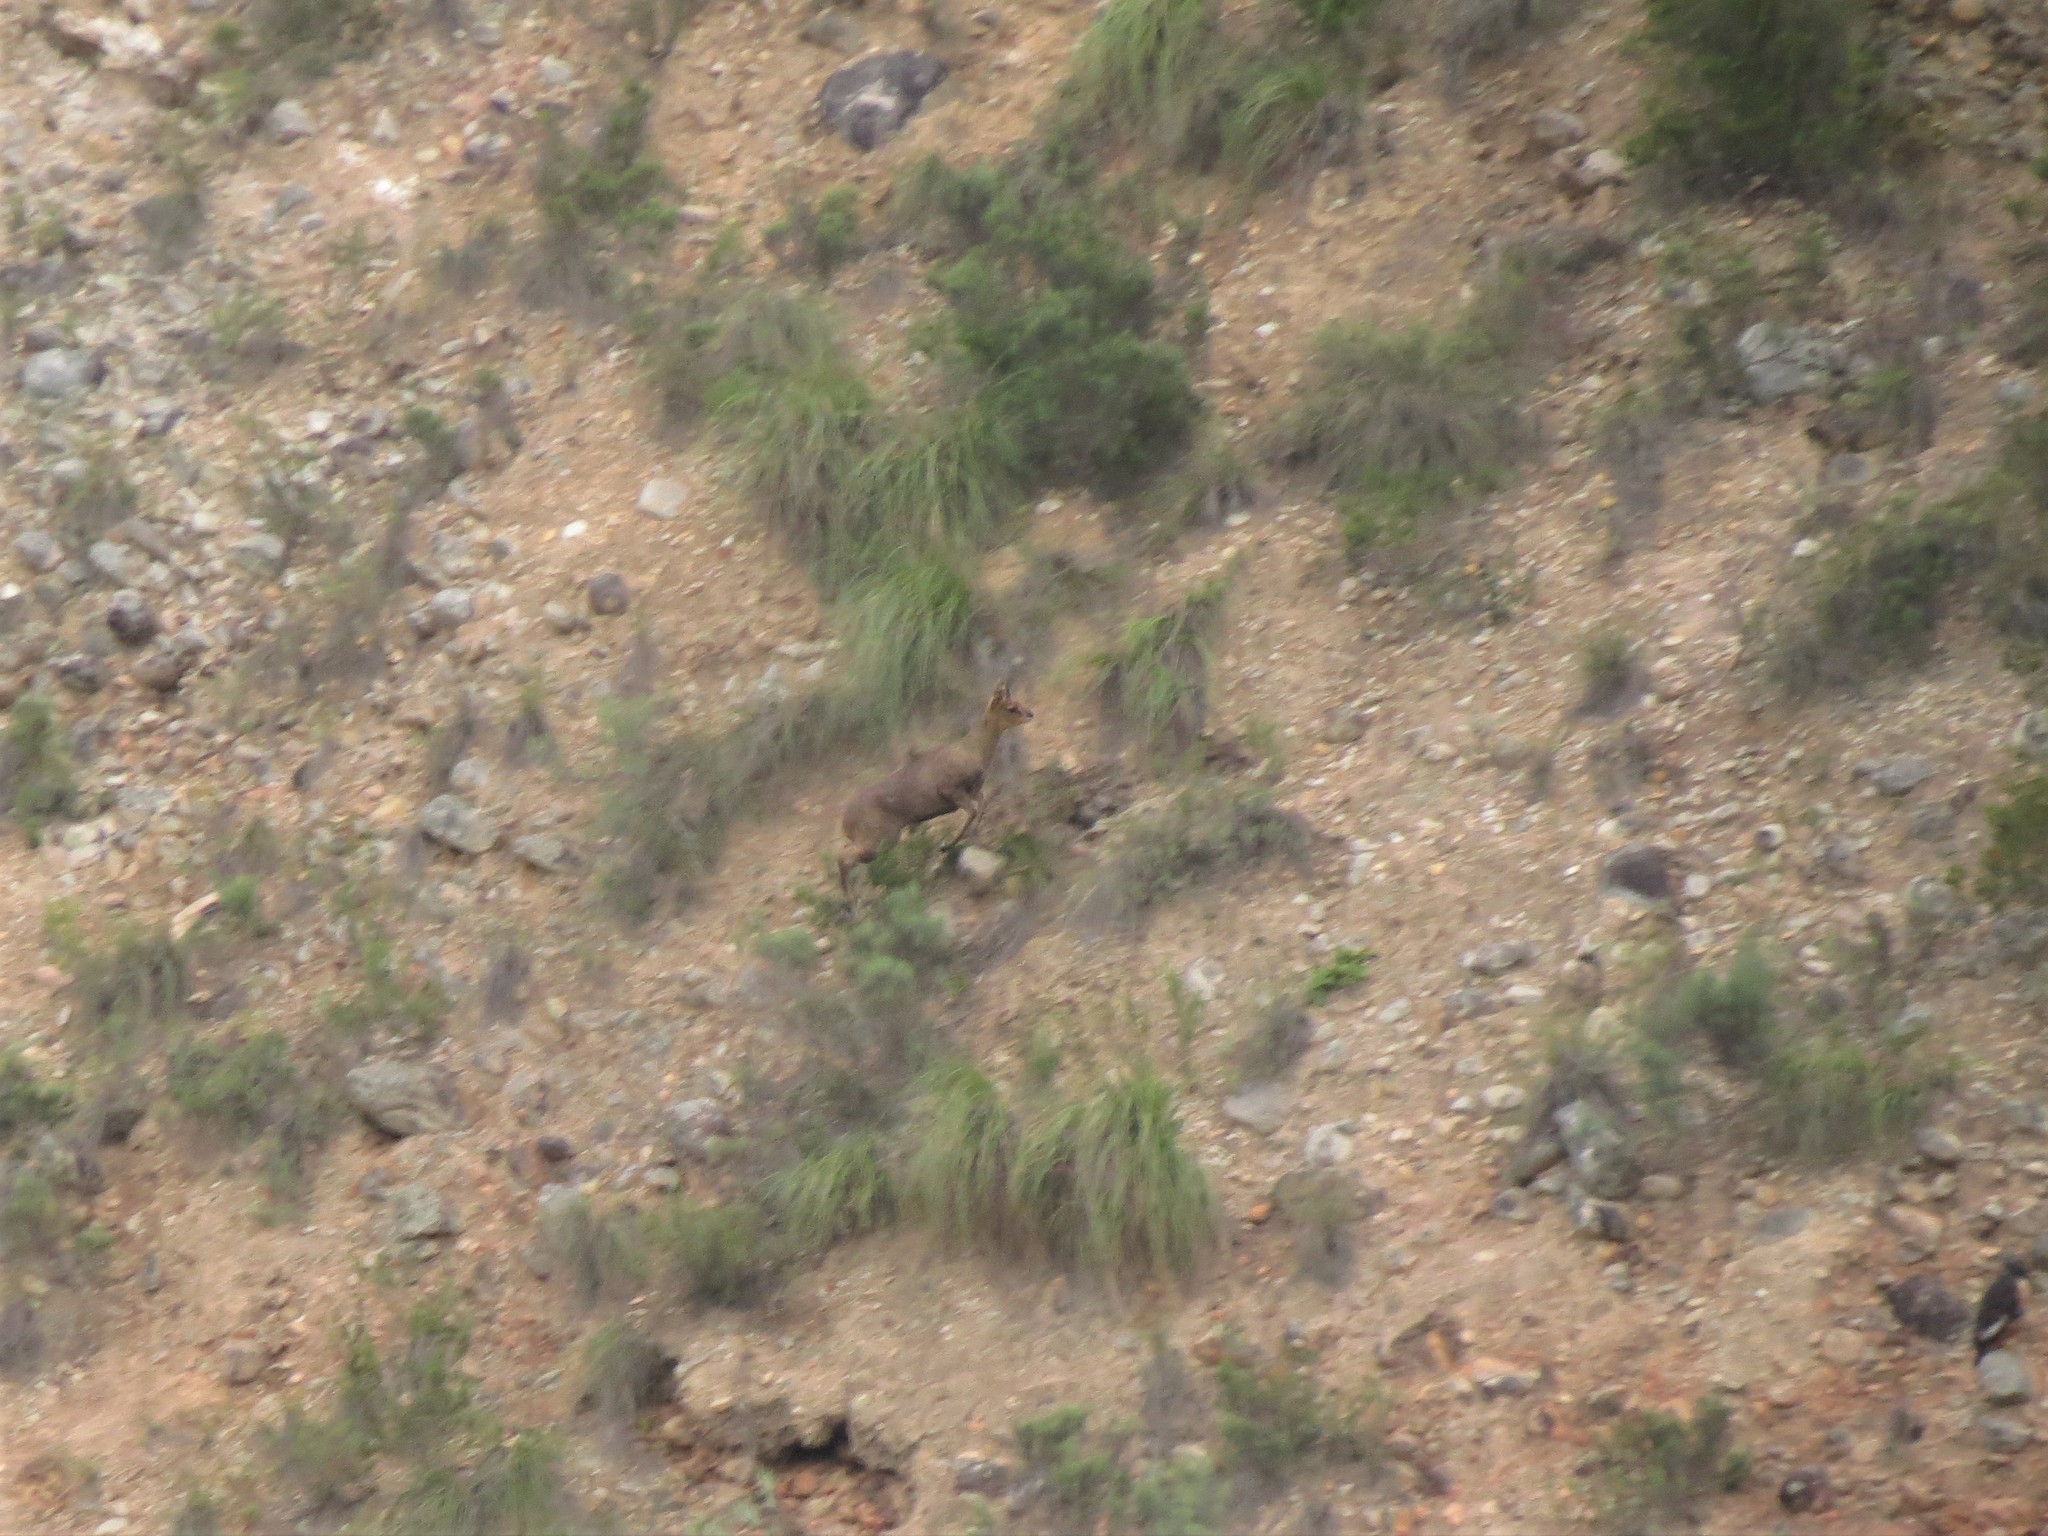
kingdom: Animalia
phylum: Chordata
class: Mammalia
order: Artiodactyla
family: Bovidae
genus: Oreotragus
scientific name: Oreotragus oreotragus
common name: Klipspringer
